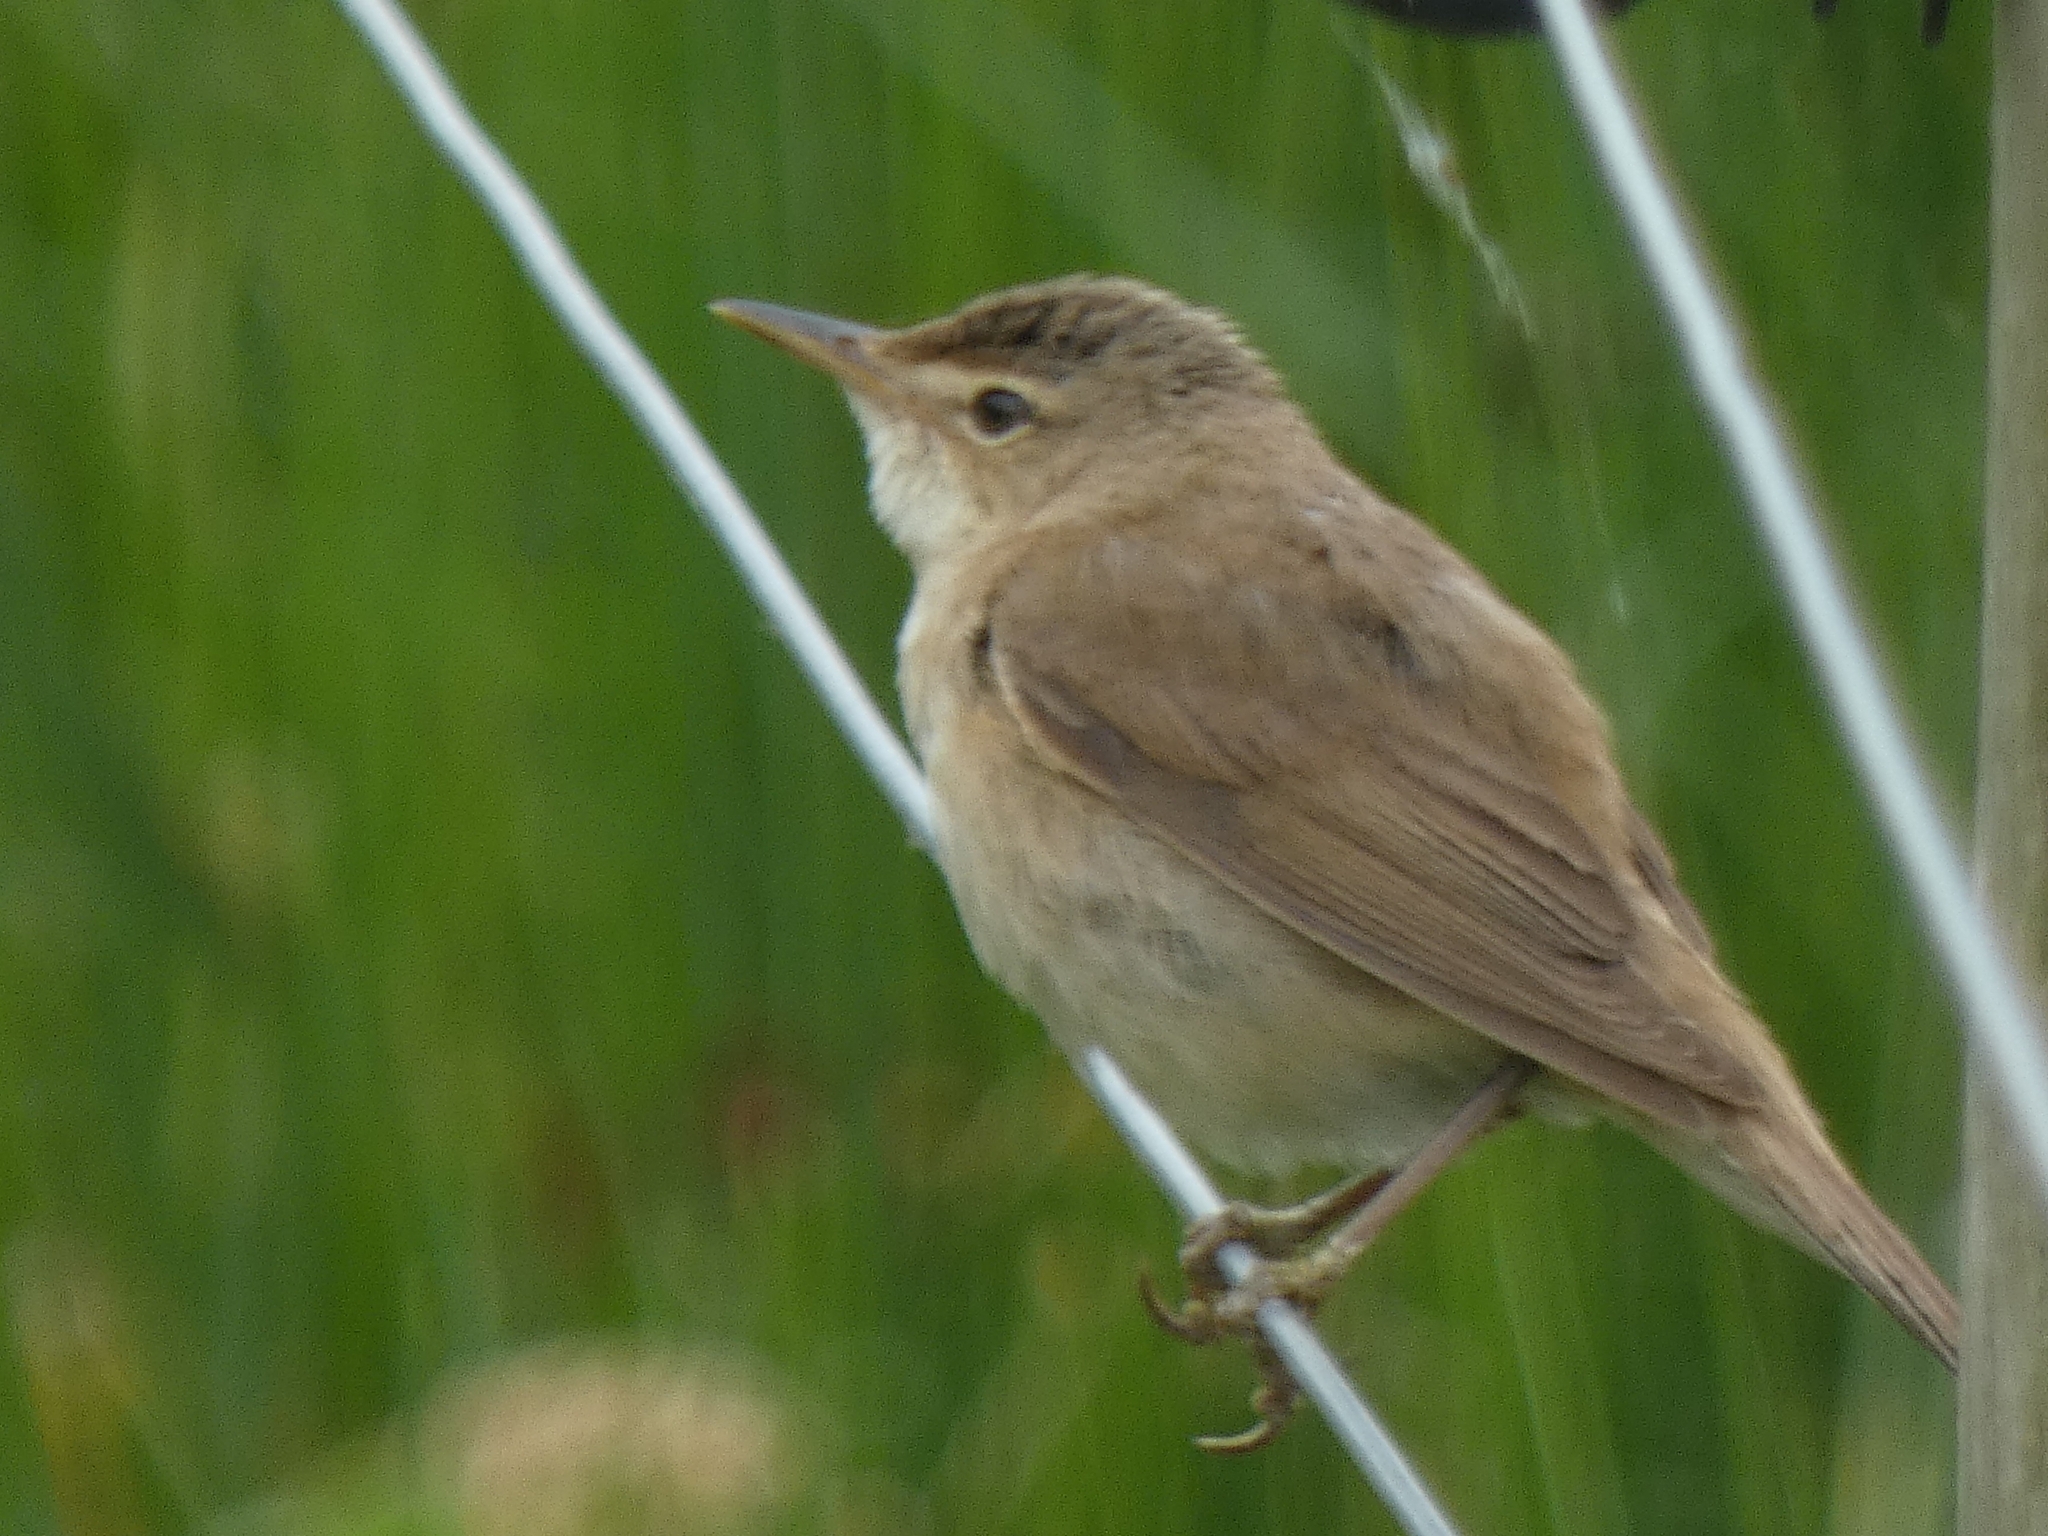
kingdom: Animalia
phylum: Chordata
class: Aves
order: Passeriformes
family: Acrocephalidae
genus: Acrocephalus
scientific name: Acrocephalus scirpaceus
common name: Eurasian reed warbler
